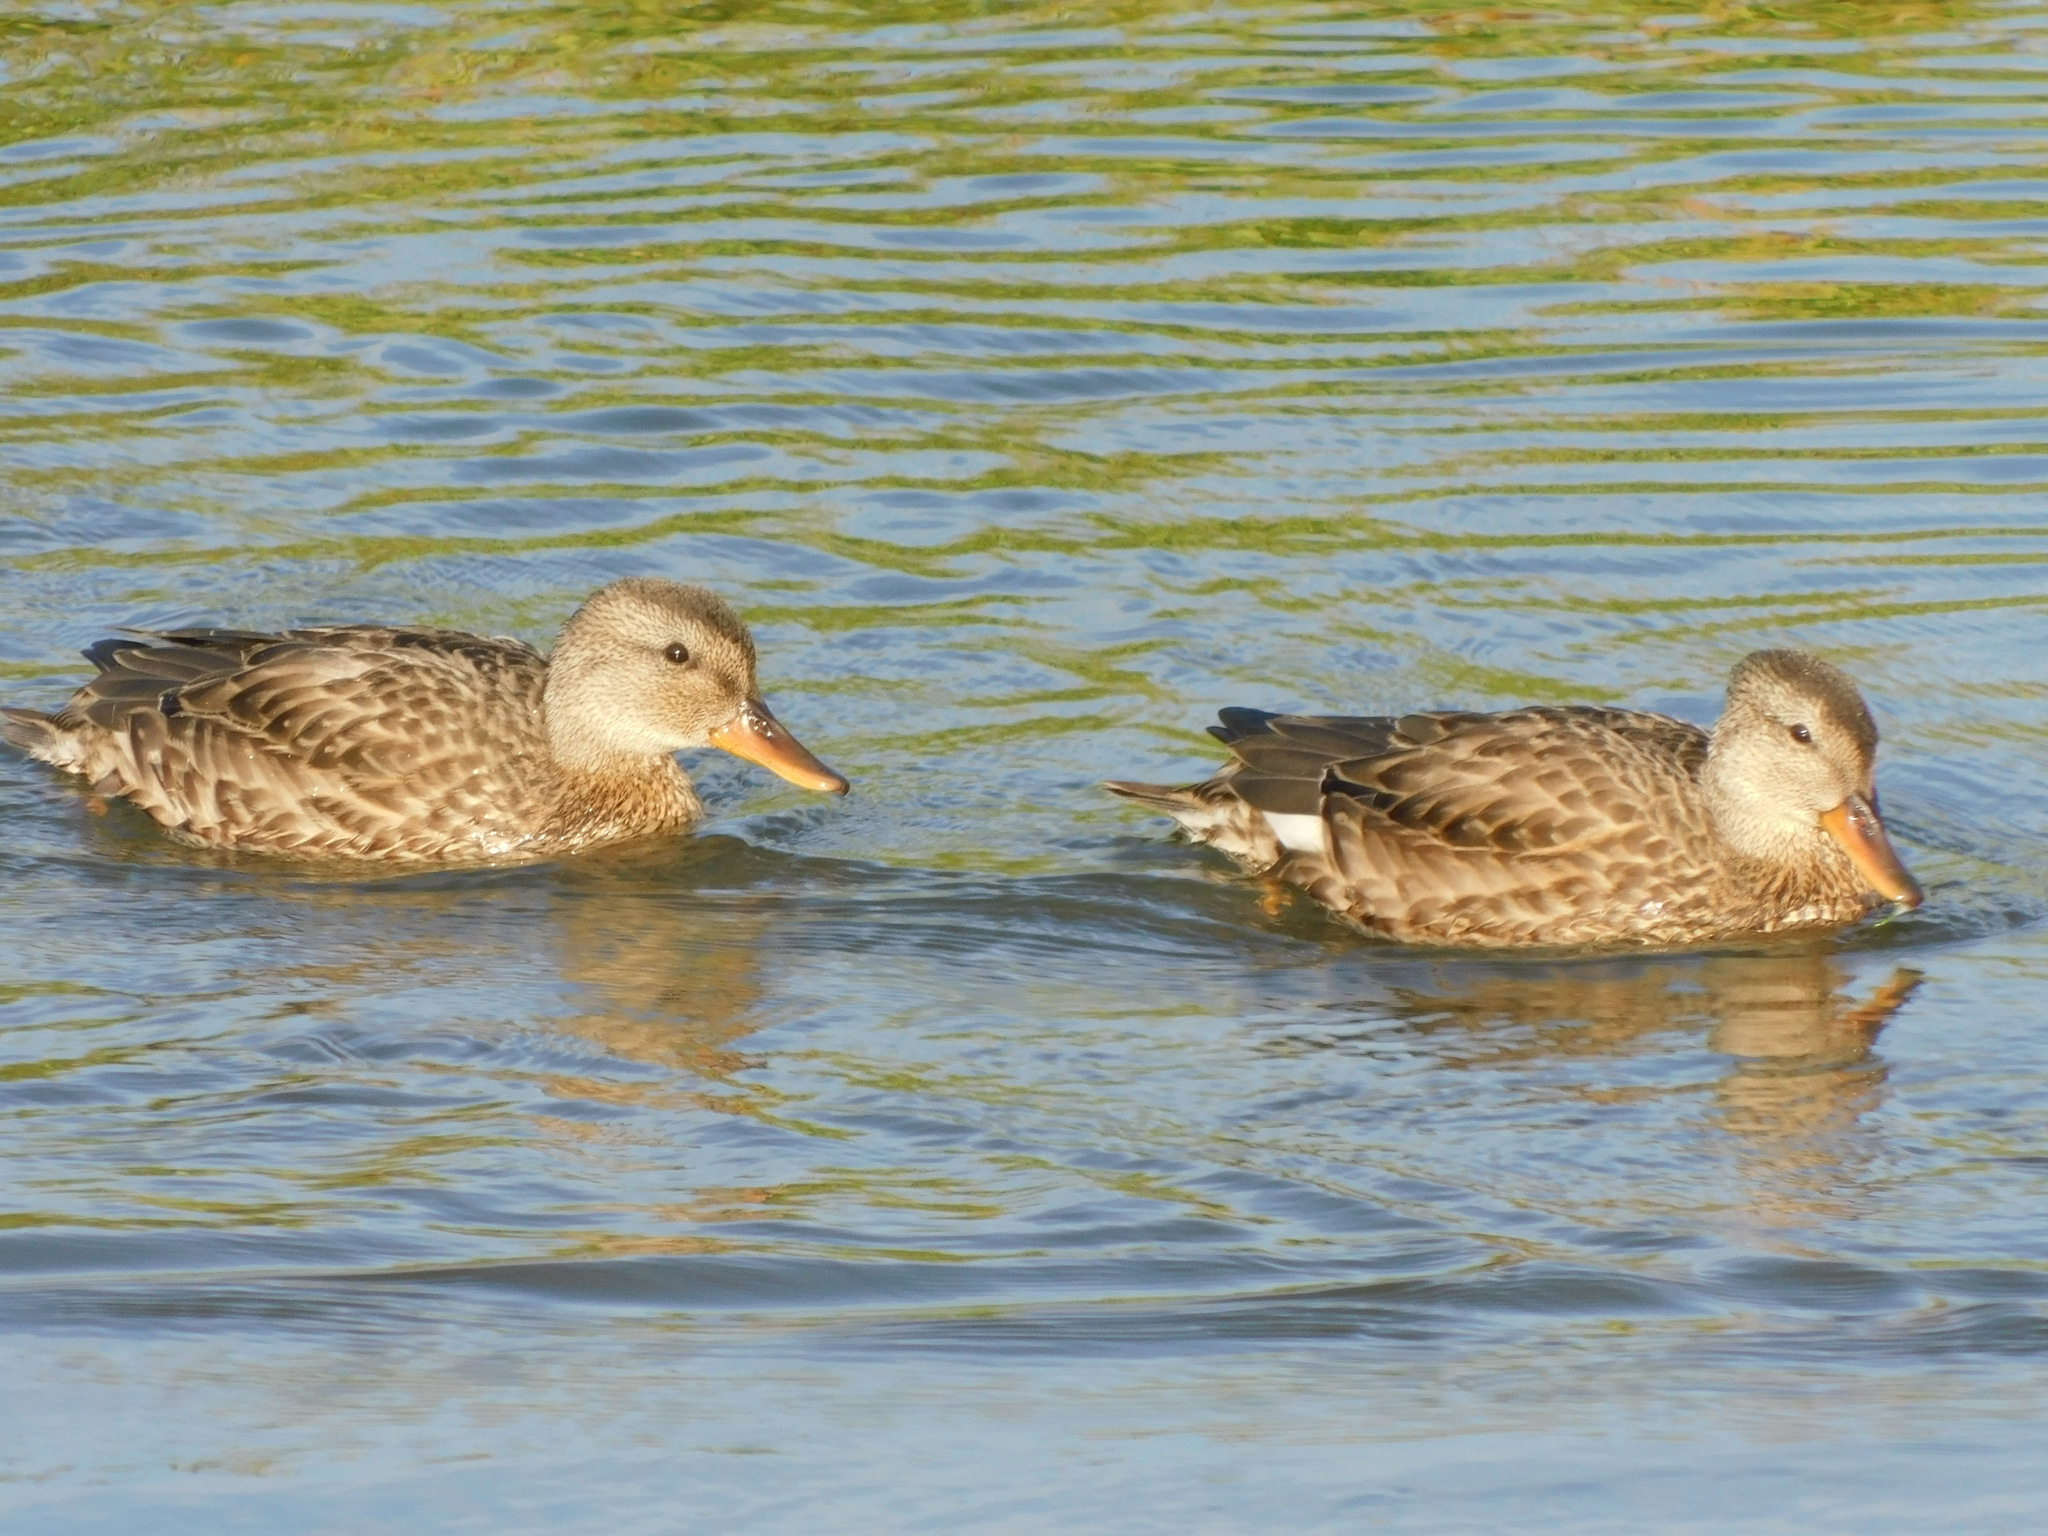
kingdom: Animalia
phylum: Chordata
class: Aves
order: Anseriformes
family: Anatidae
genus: Mareca
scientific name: Mareca strepera
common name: Gadwall
